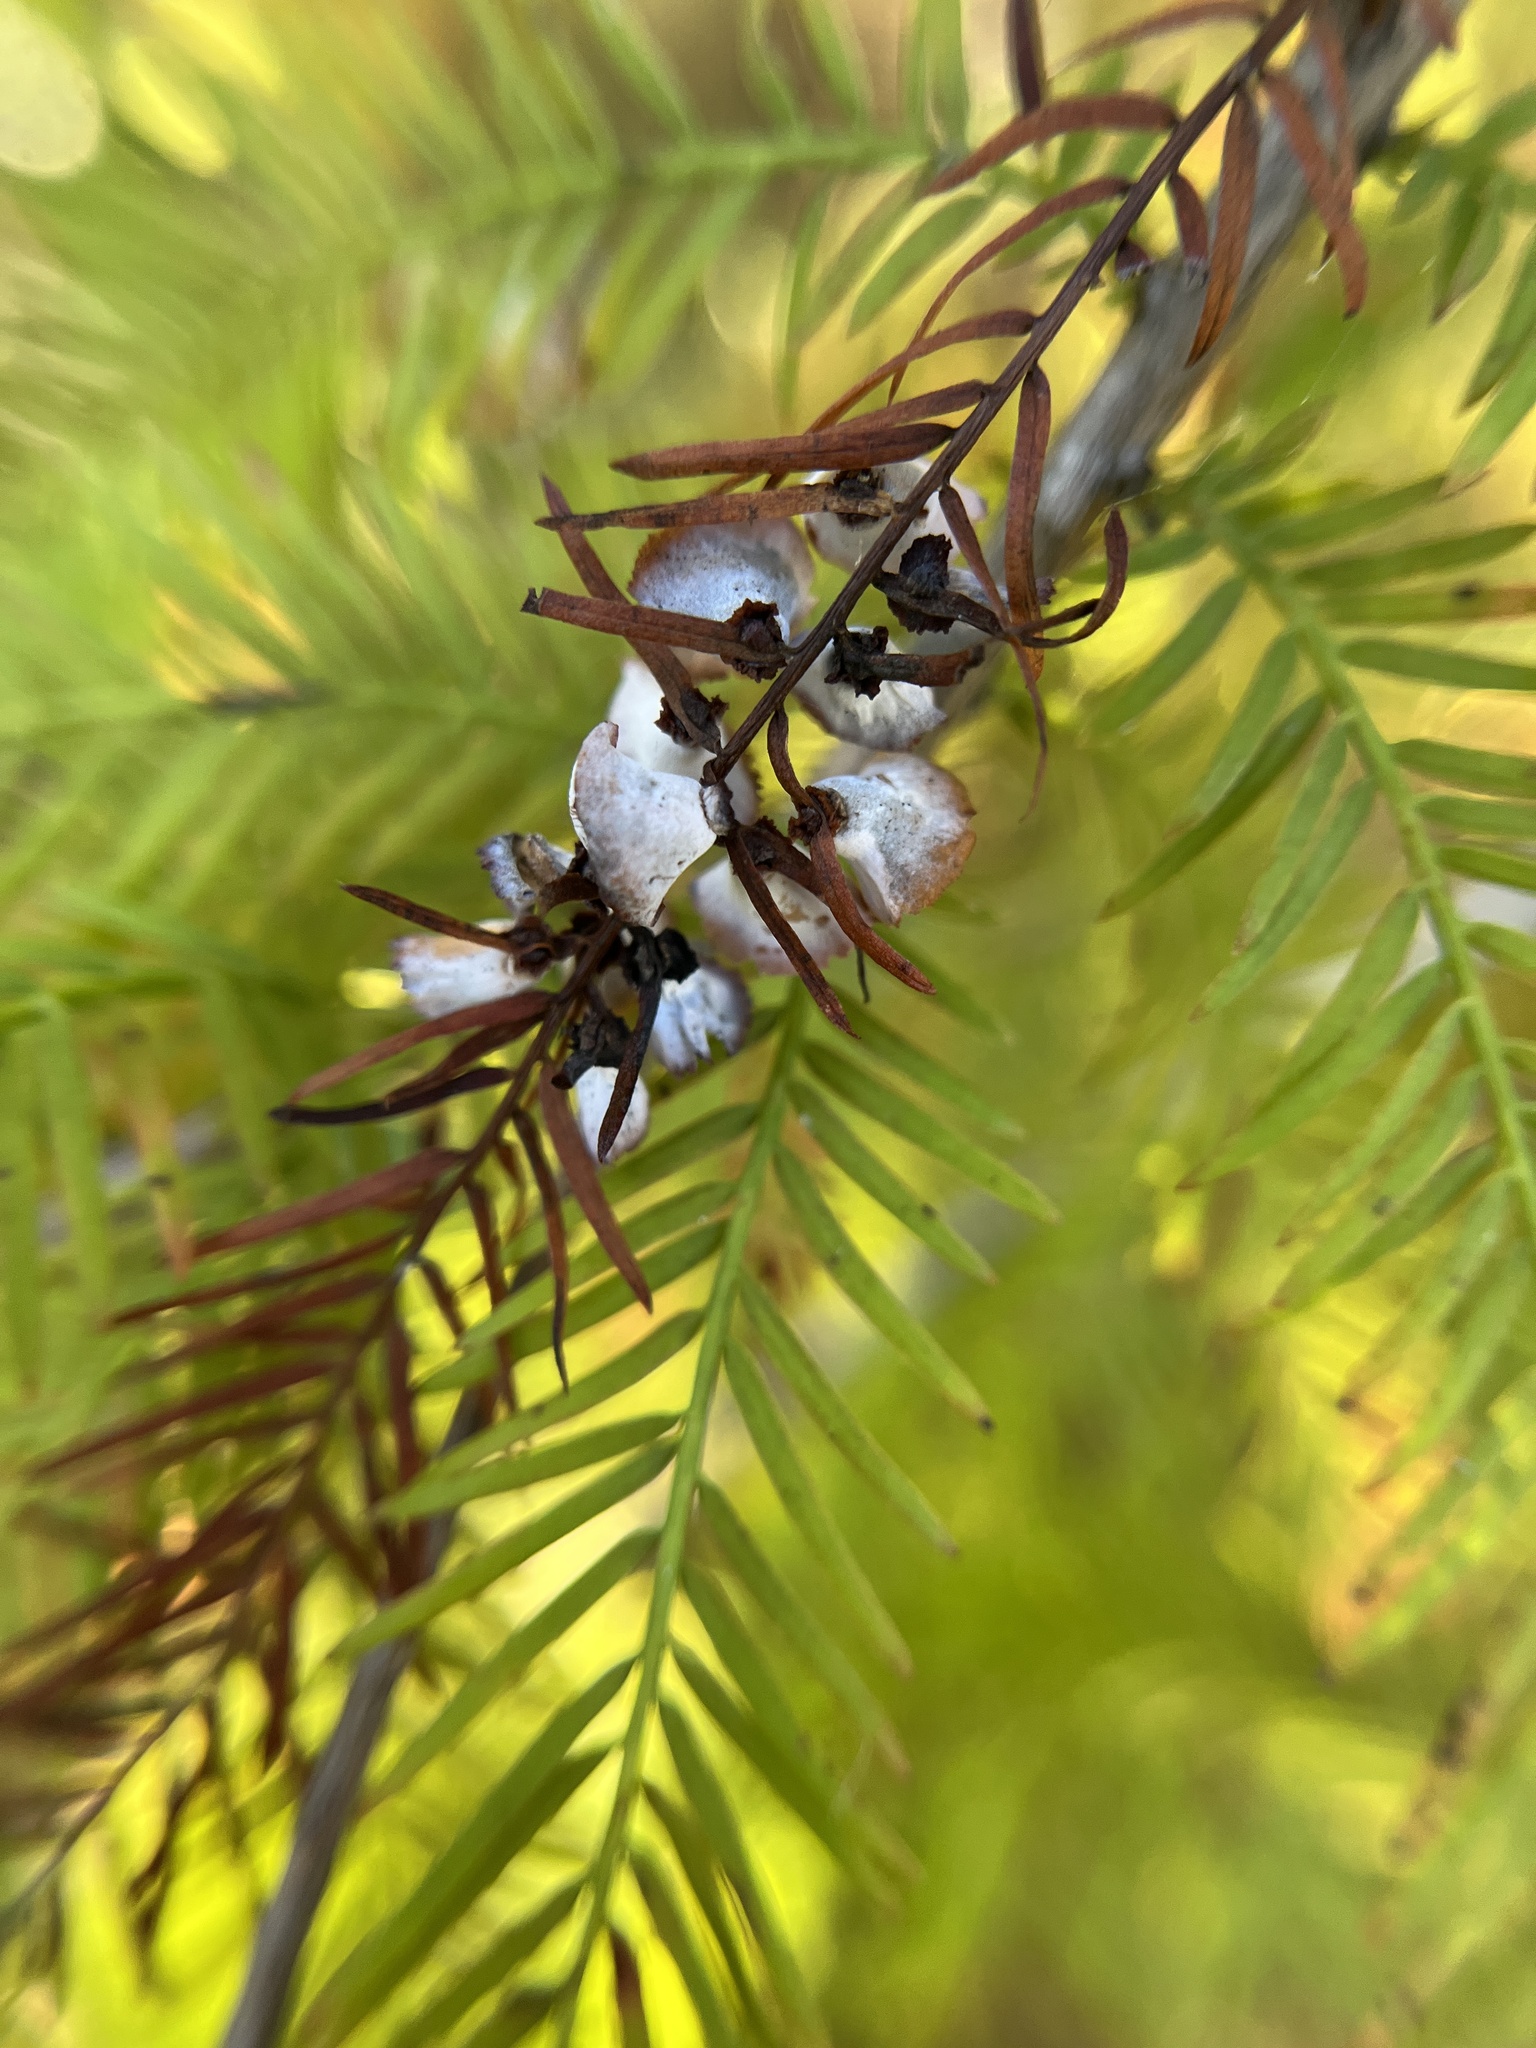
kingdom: Animalia
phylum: Arthropoda
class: Insecta
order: Diptera
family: Cecidomyiidae
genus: Taxodiomyia
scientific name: Taxodiomyia cupressi
